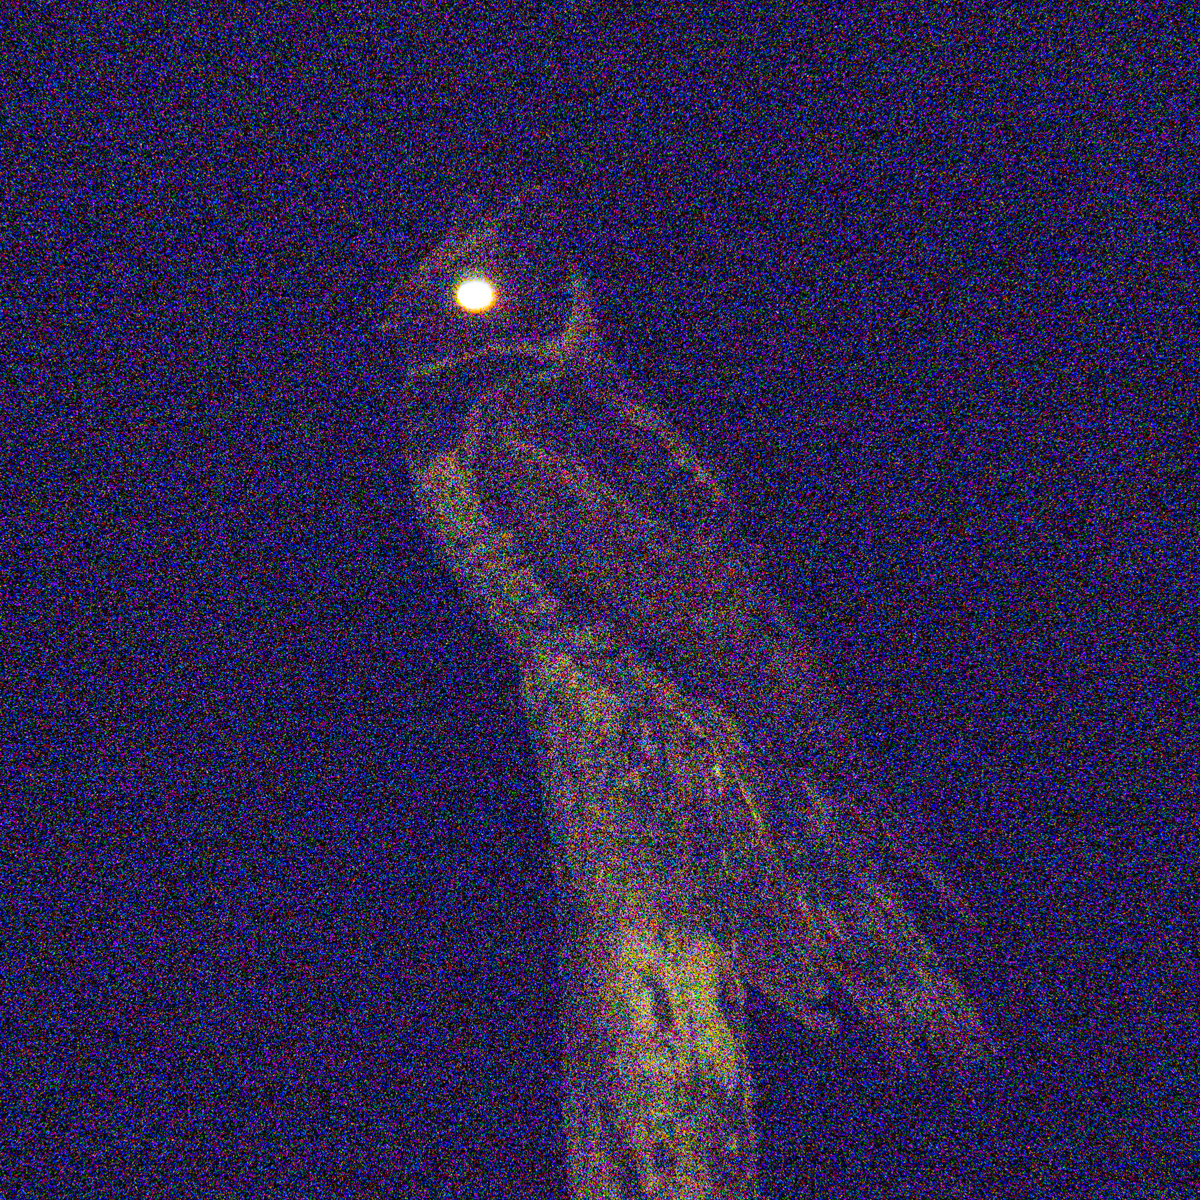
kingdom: Animalia
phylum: Chordata
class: Aves
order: Caprimulgiformes
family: Caprimulgidae
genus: Lyncornis
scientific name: Lyncornis macrotis
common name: Great eared-nightjar
